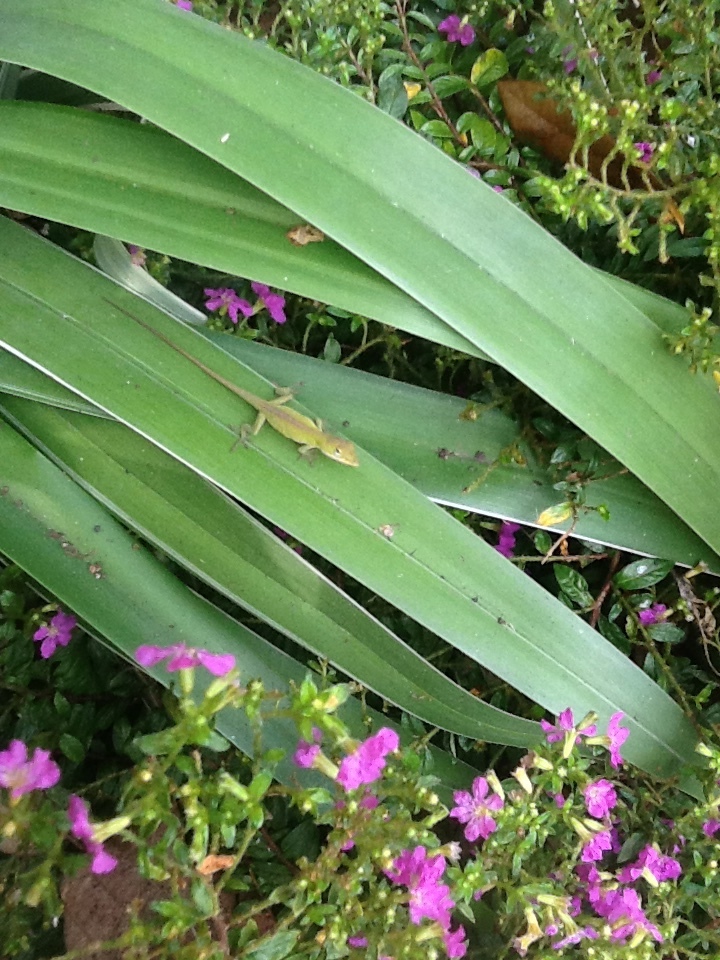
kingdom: Animalia
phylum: Chordata
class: Squamata
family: Dactyloidae
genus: Anolis
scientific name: Anolis carolinensis
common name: Green anole
